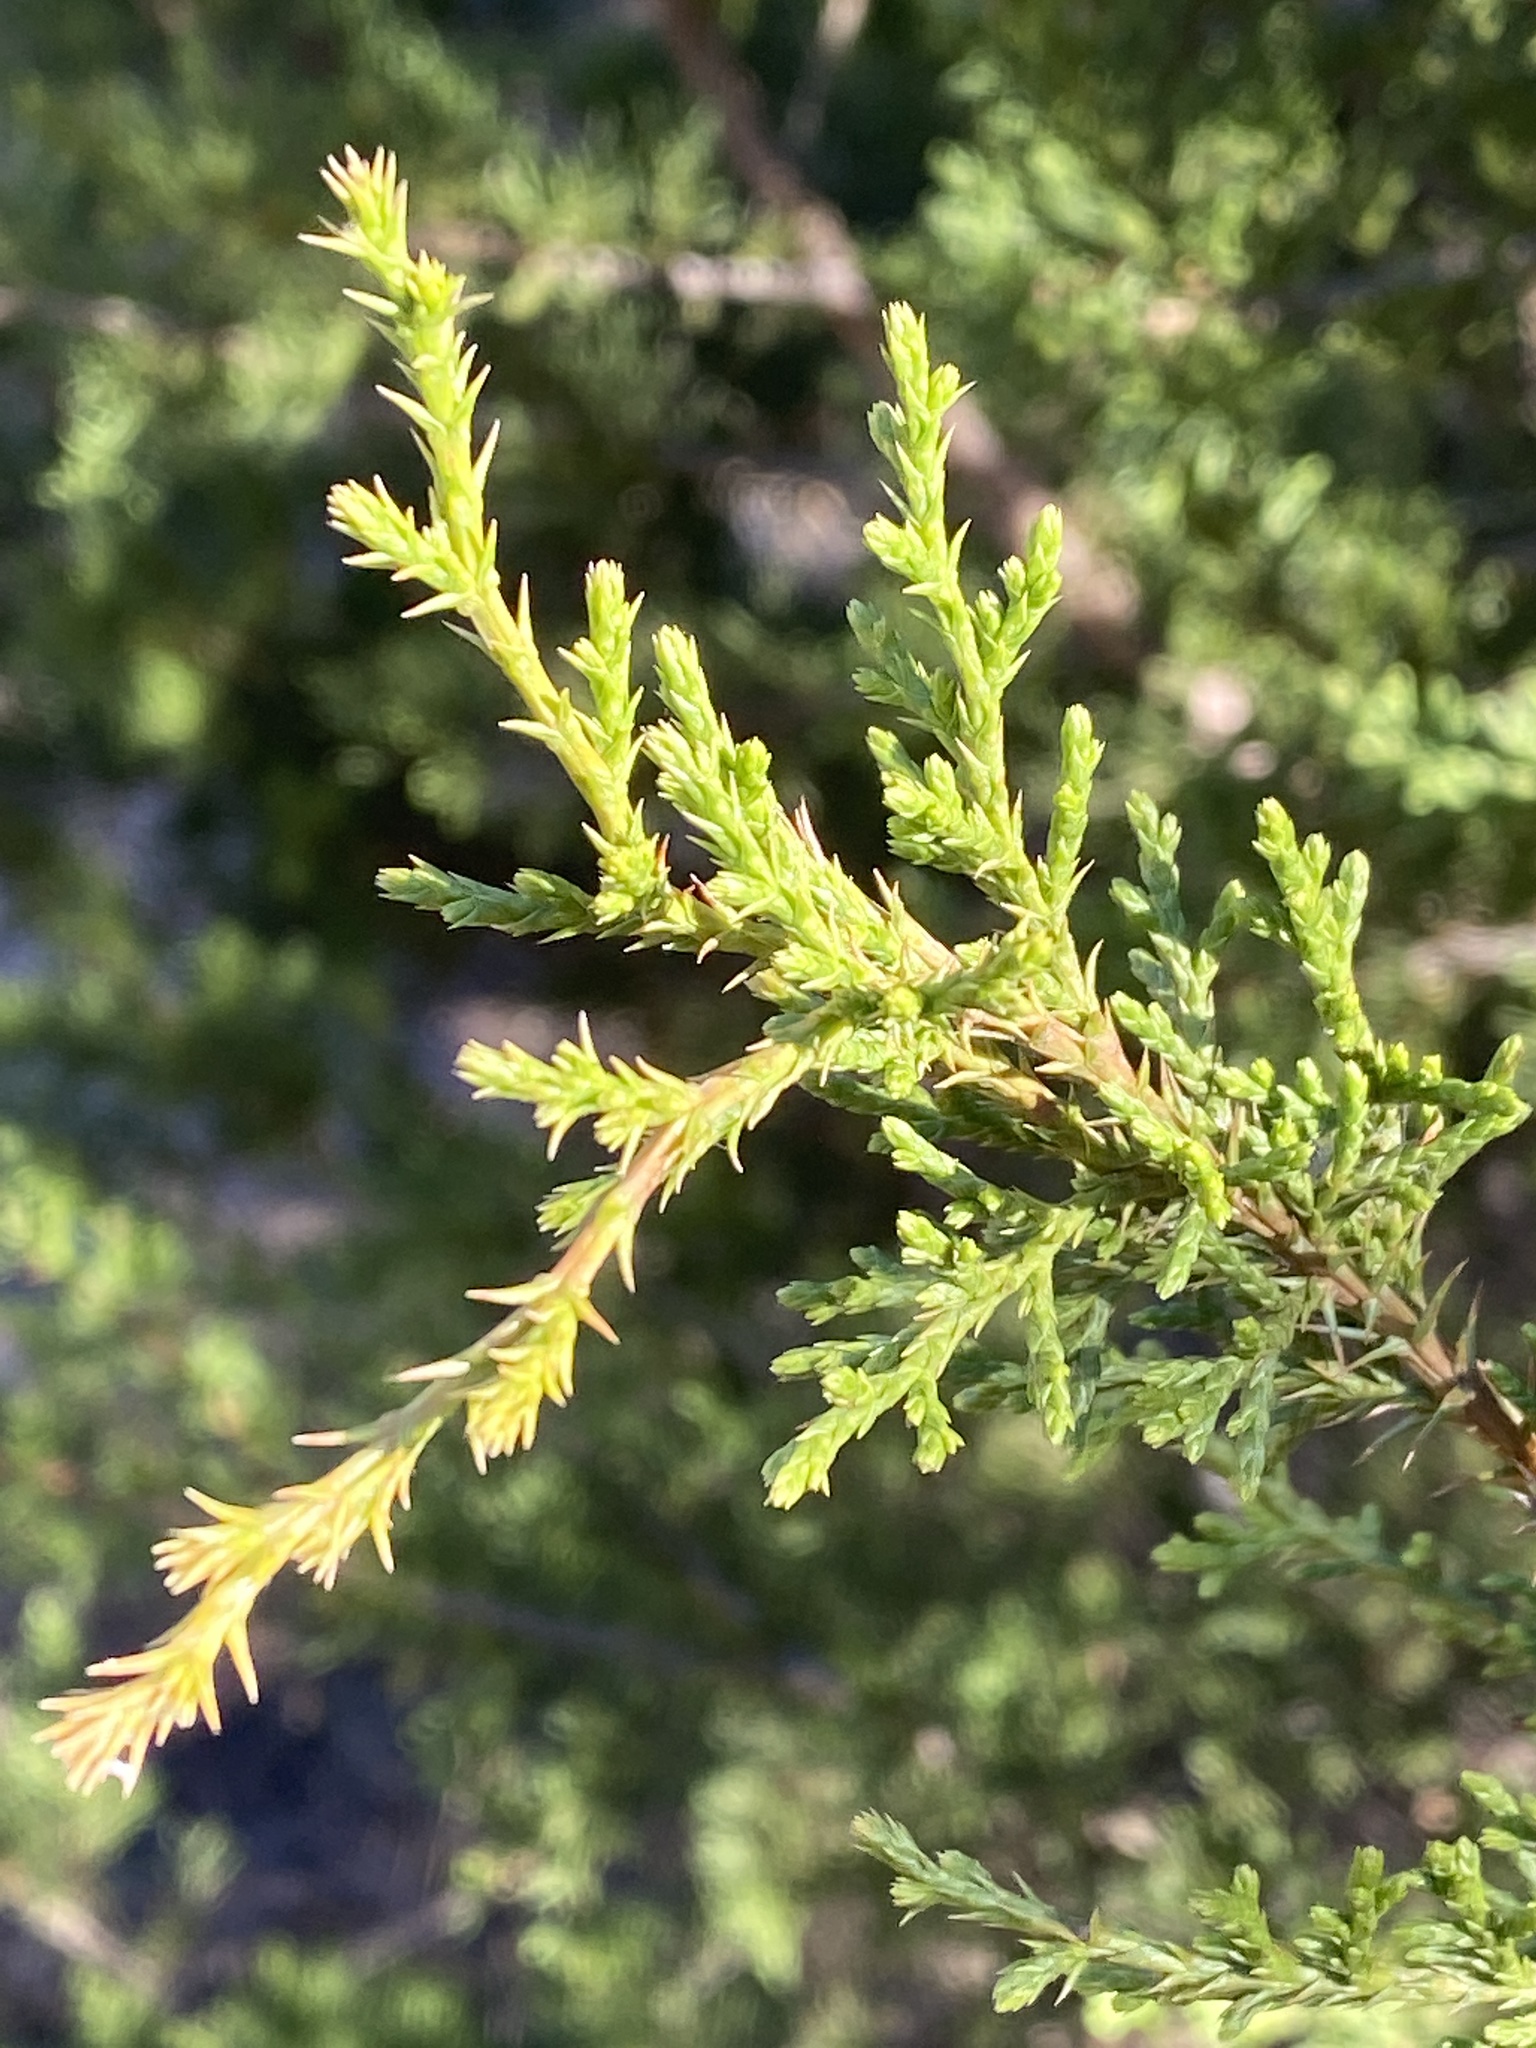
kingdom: Plantae
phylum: Tracheophyta
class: Pinopsida
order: Pinales
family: Cupressaceae
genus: Juniperus
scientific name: Juniperus ashei
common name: Mexican juniper
